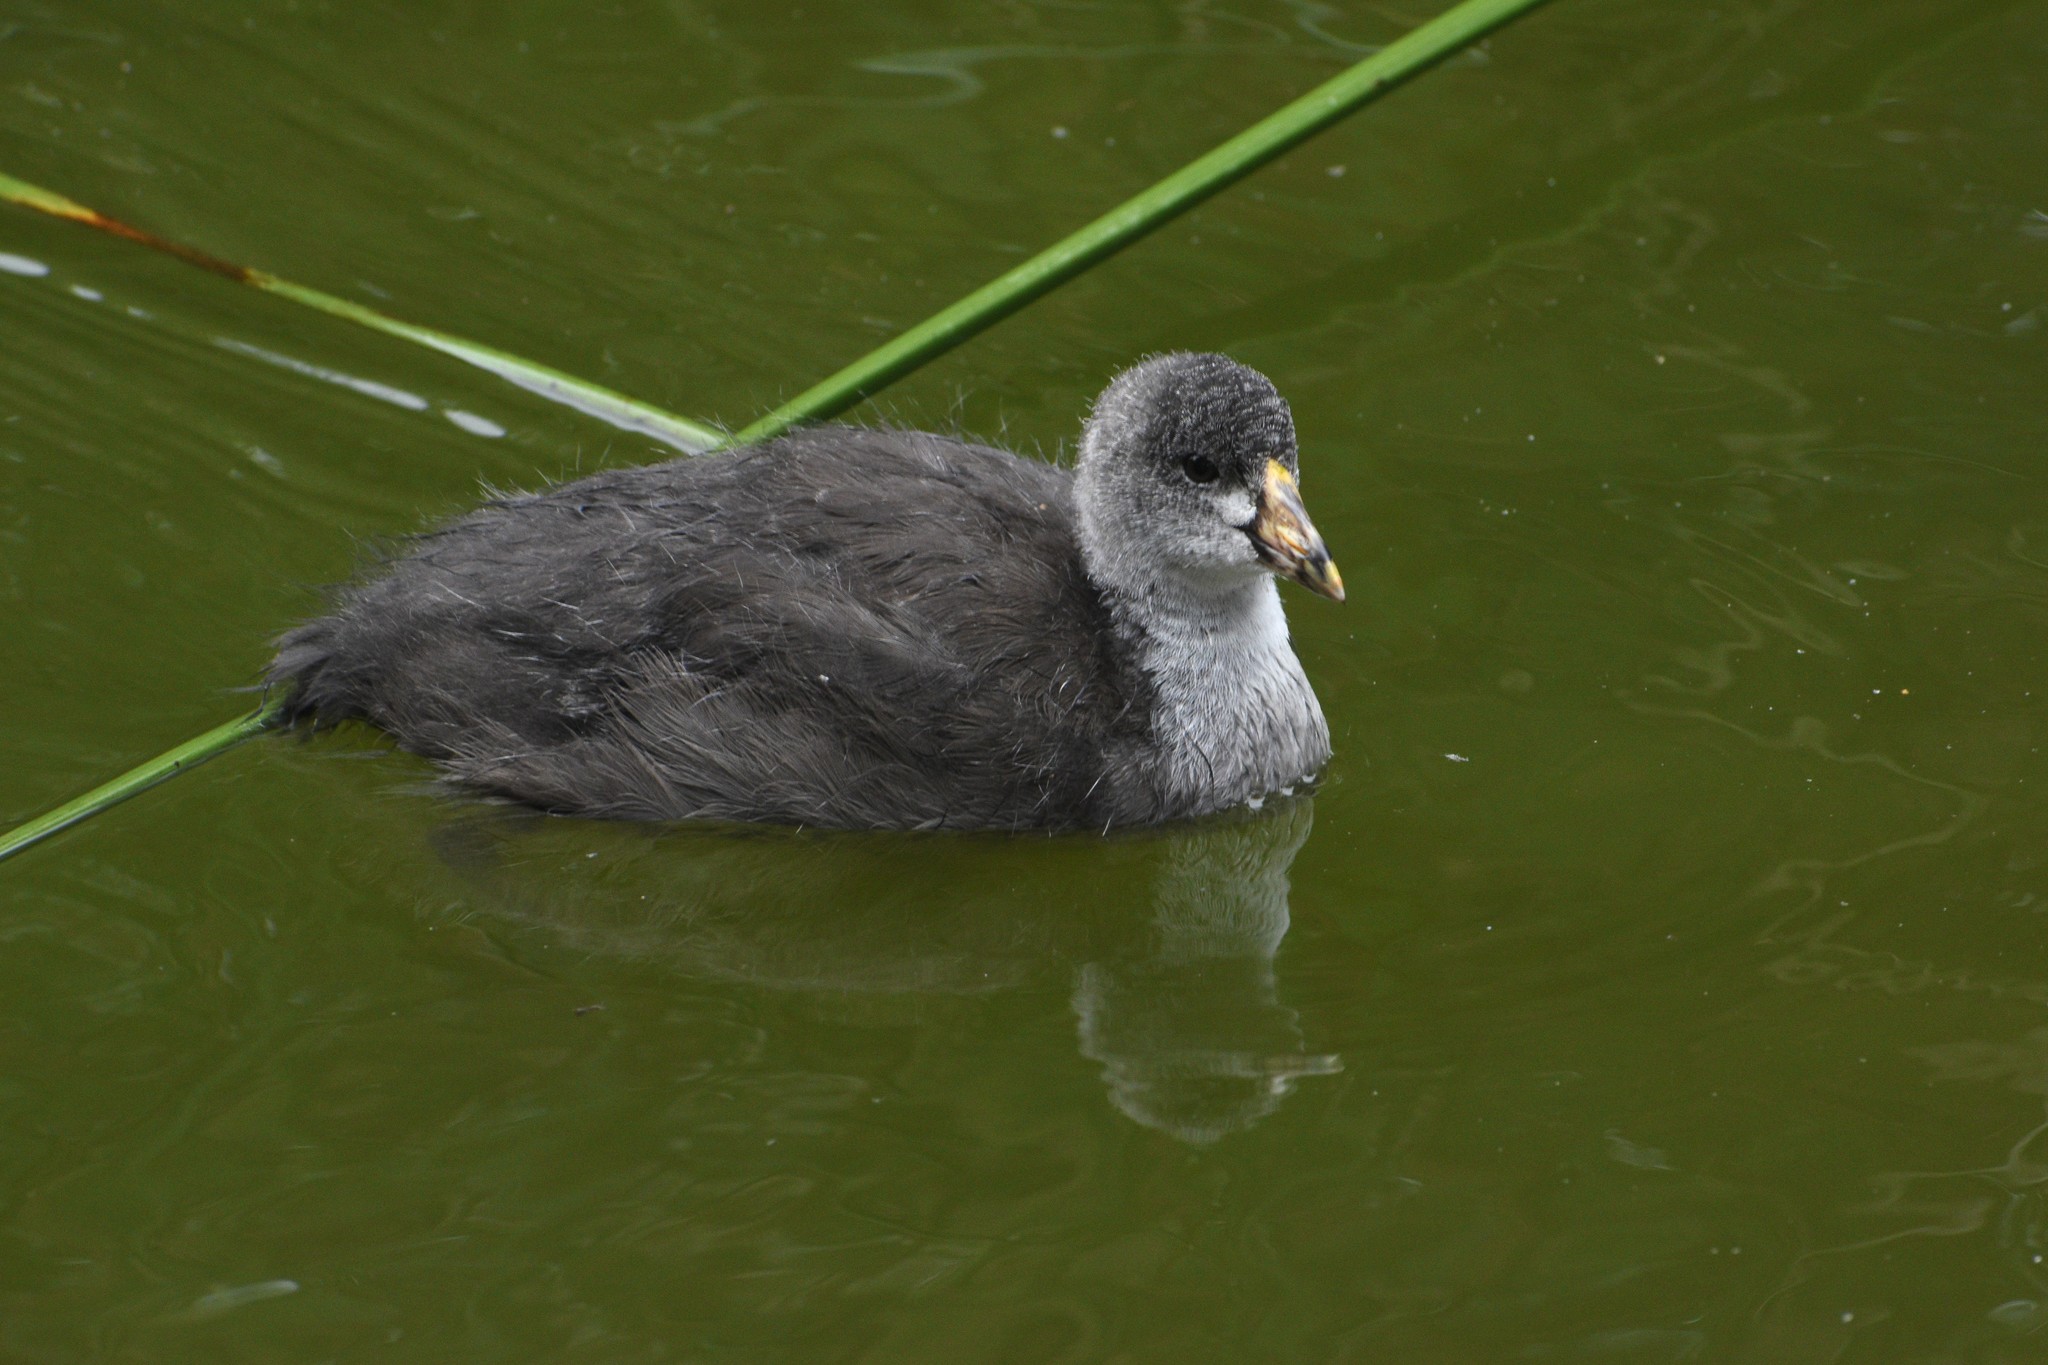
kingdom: Animalia
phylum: Chordata
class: Aves
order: Gruiformes
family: Rallidae
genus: Fulica
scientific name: Fulica americana
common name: American coot
